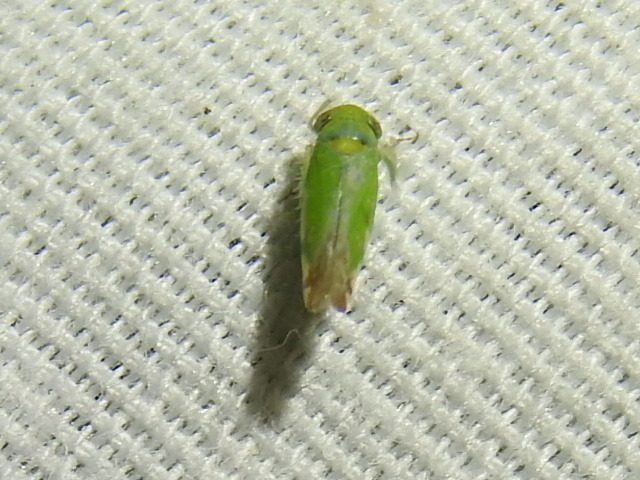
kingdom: Animalia
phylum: Arthropoda
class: Insecta
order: Hemiptera
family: Cicadellidae
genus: Opsius
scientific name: Opsius stactogalus
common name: Leafhopper
